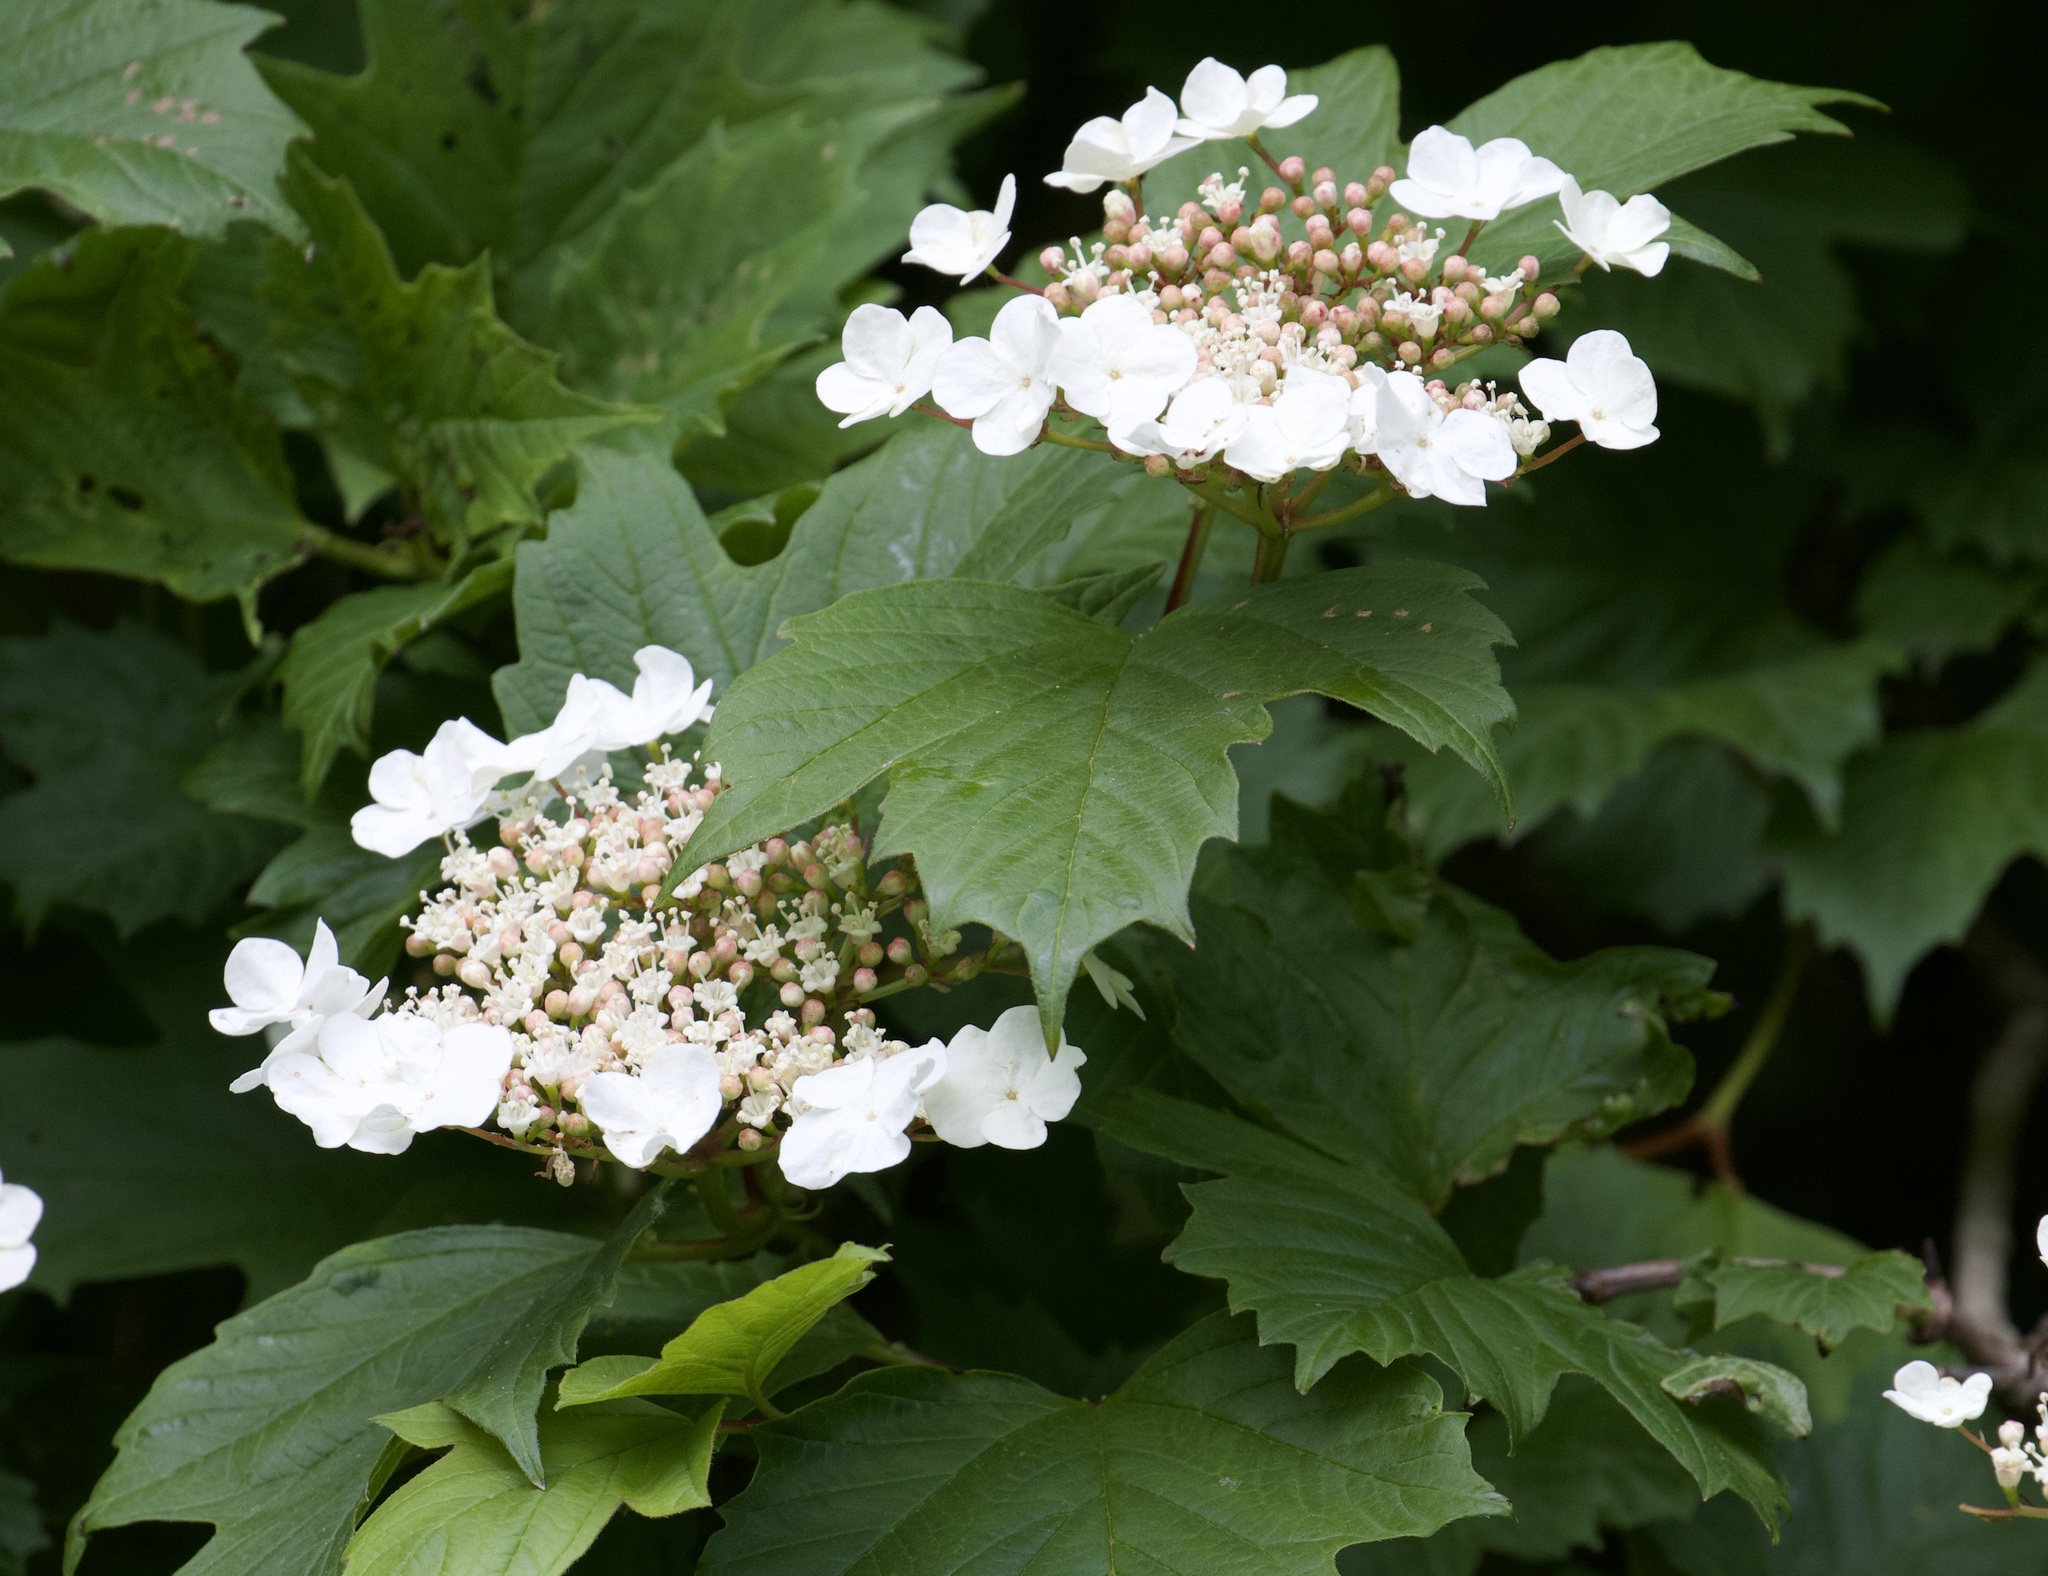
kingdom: Plantae
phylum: Tracheophyta
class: Magnoliopsida
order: Dipsacales
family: Viburnaceae
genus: Viburnum
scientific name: Viburnum opulus
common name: Guelder-rose
